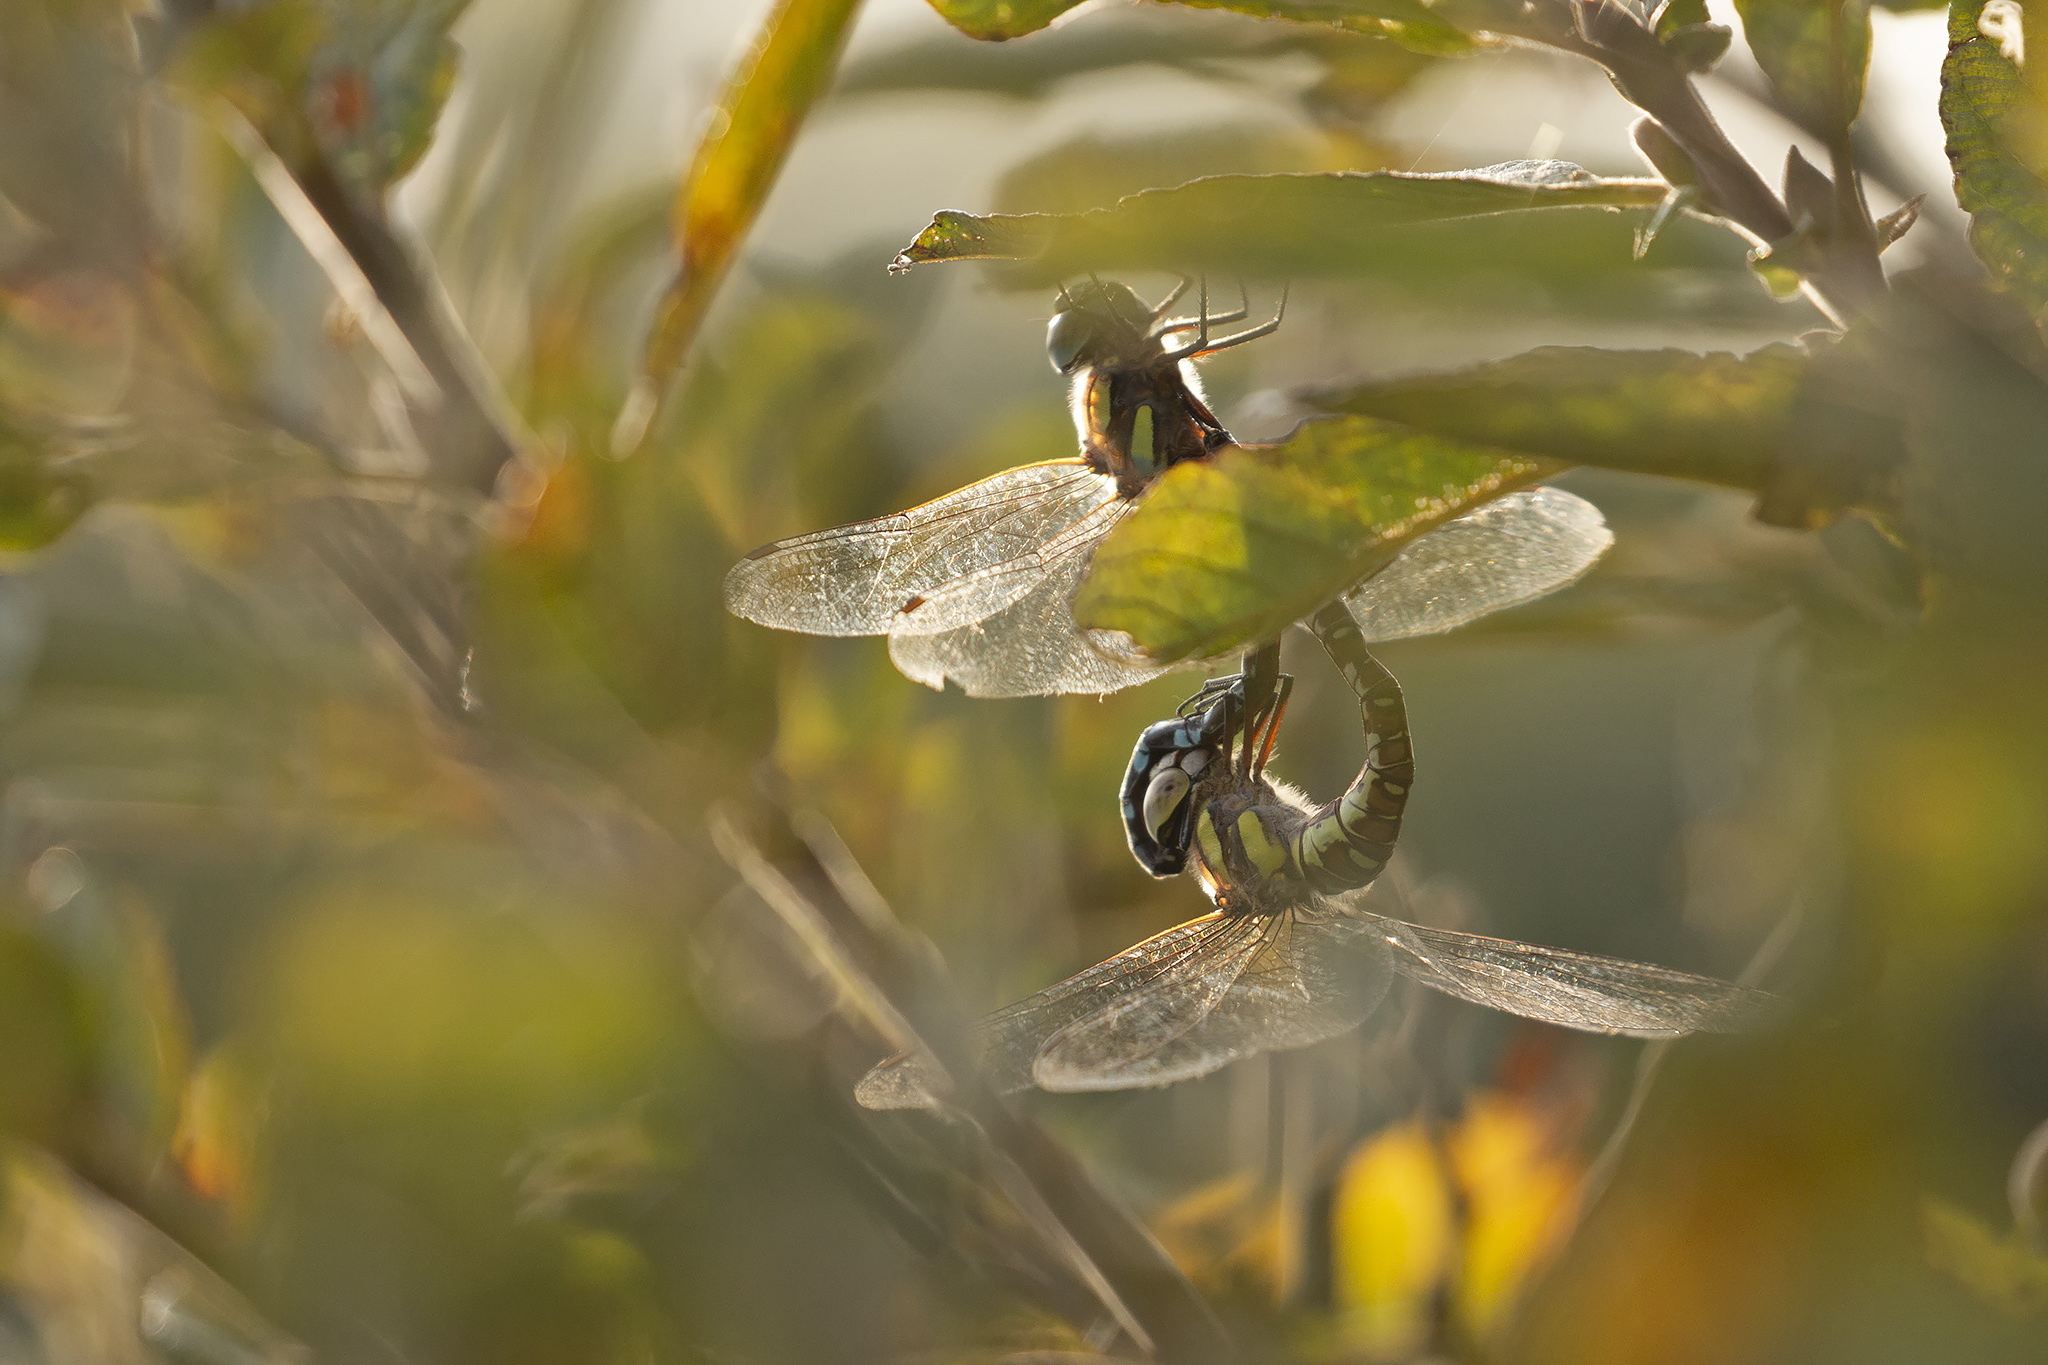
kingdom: Animalia
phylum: Arthropoda
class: Insecta
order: Odonata
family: Aeshnidae
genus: Aeshna
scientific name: Aeshna mixta
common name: Migrant hawker
